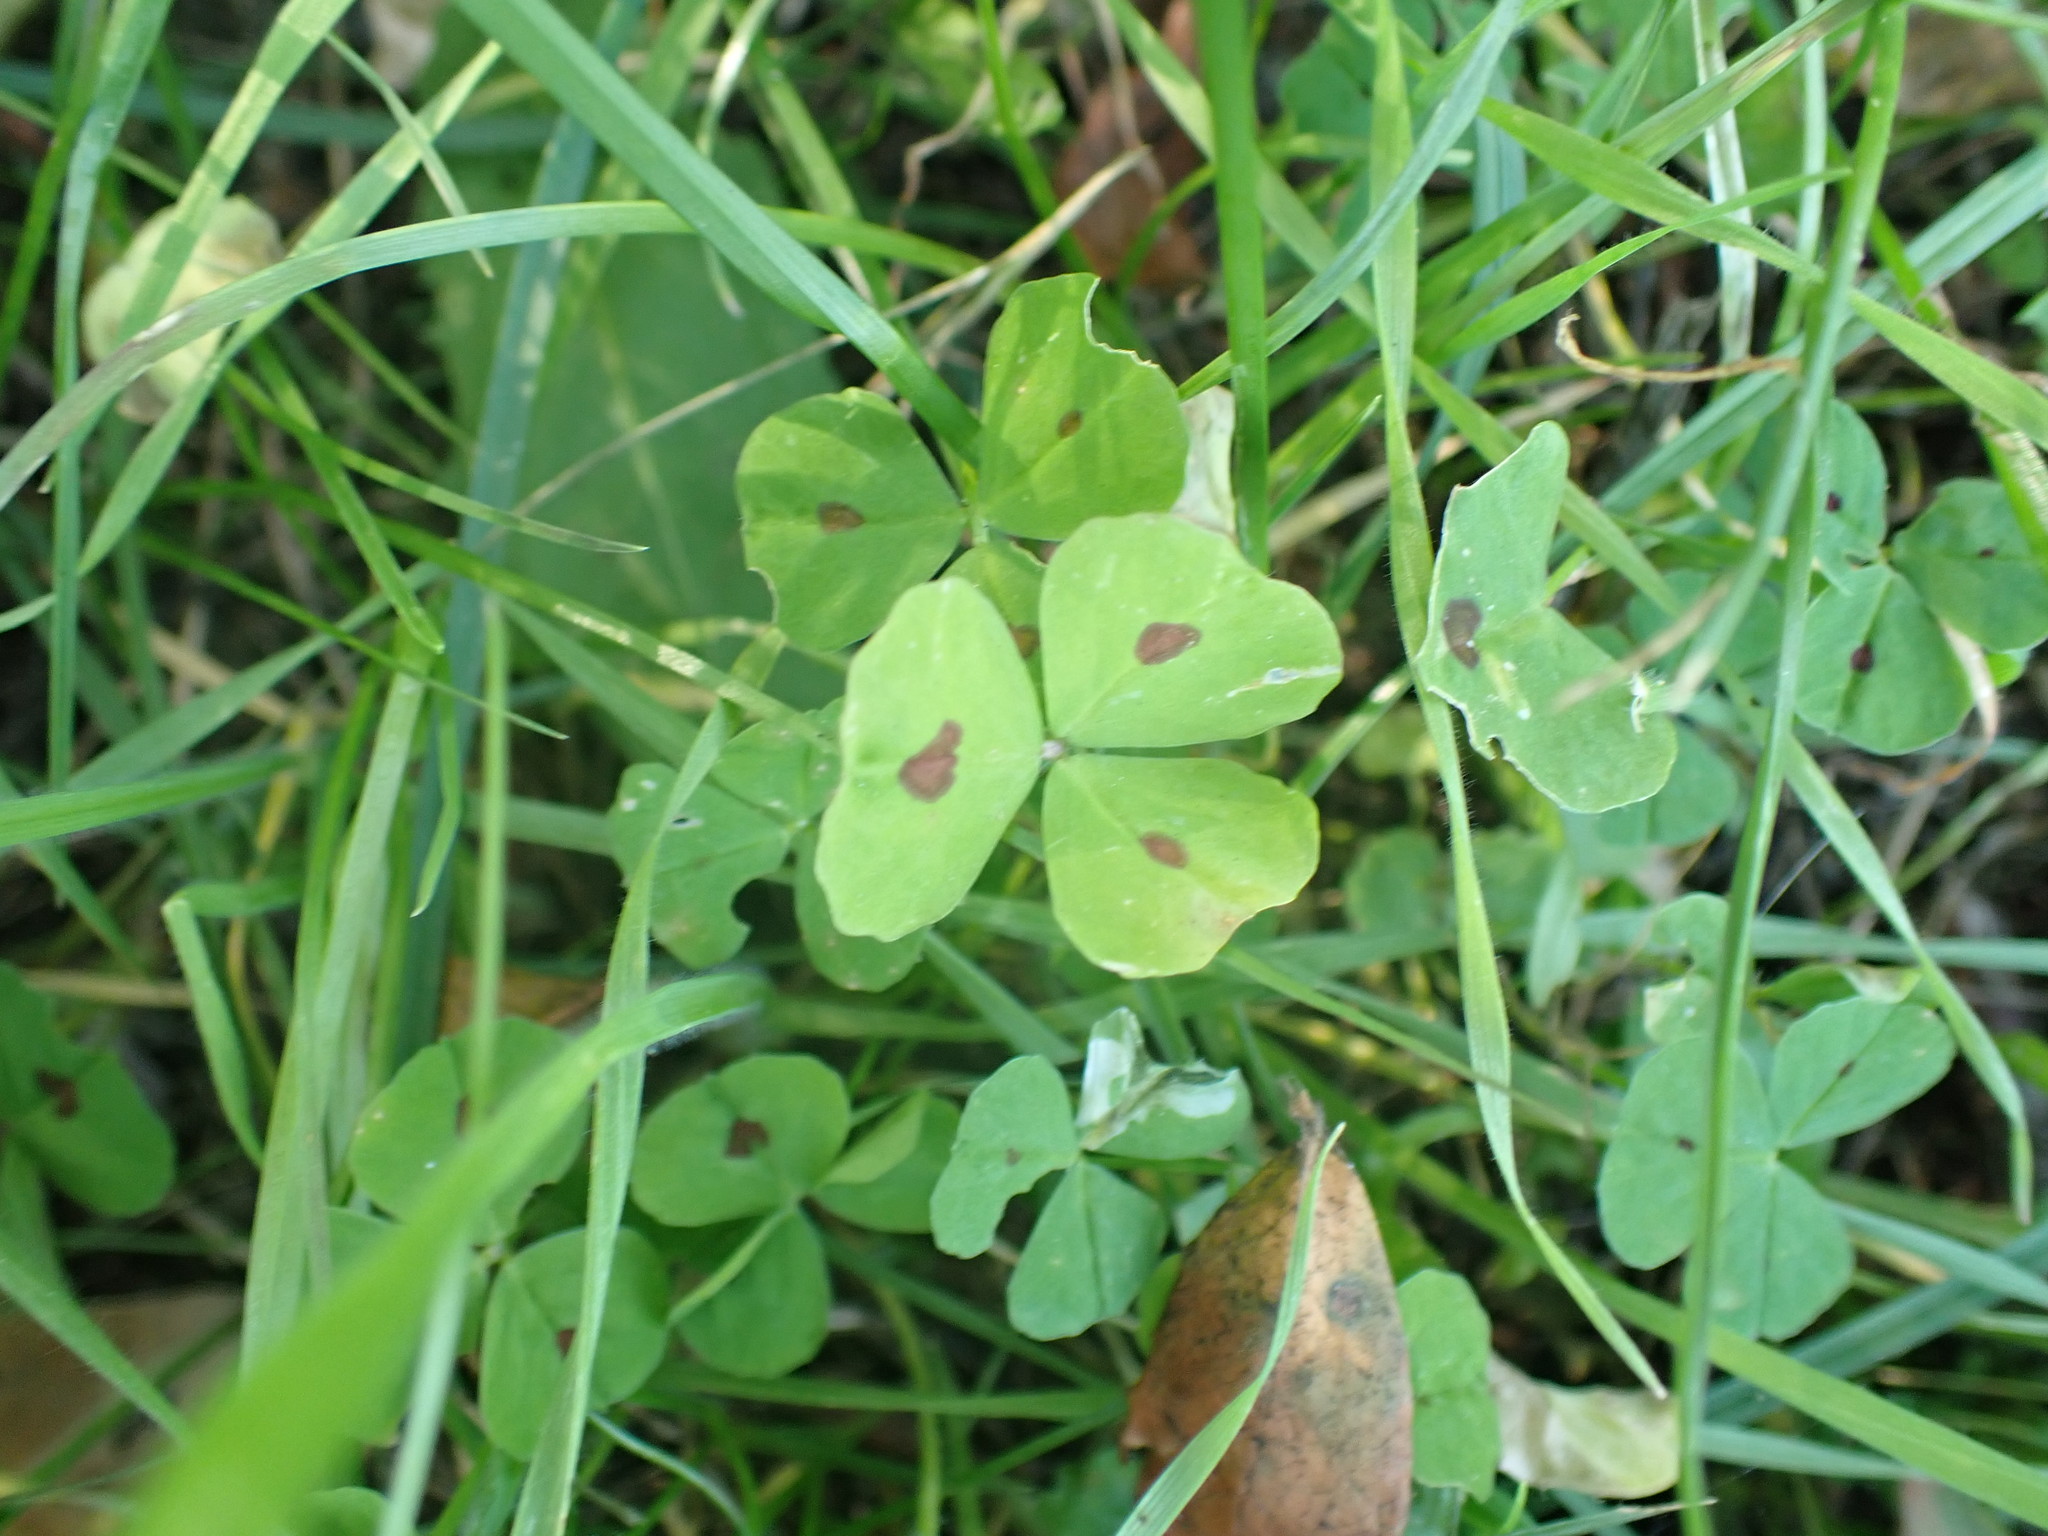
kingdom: Plantae
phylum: Tracheophyta
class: Magnoliopsida
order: Fabales
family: Fabaceae
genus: Medicago
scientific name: Medicago arabica
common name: Spotted medick
